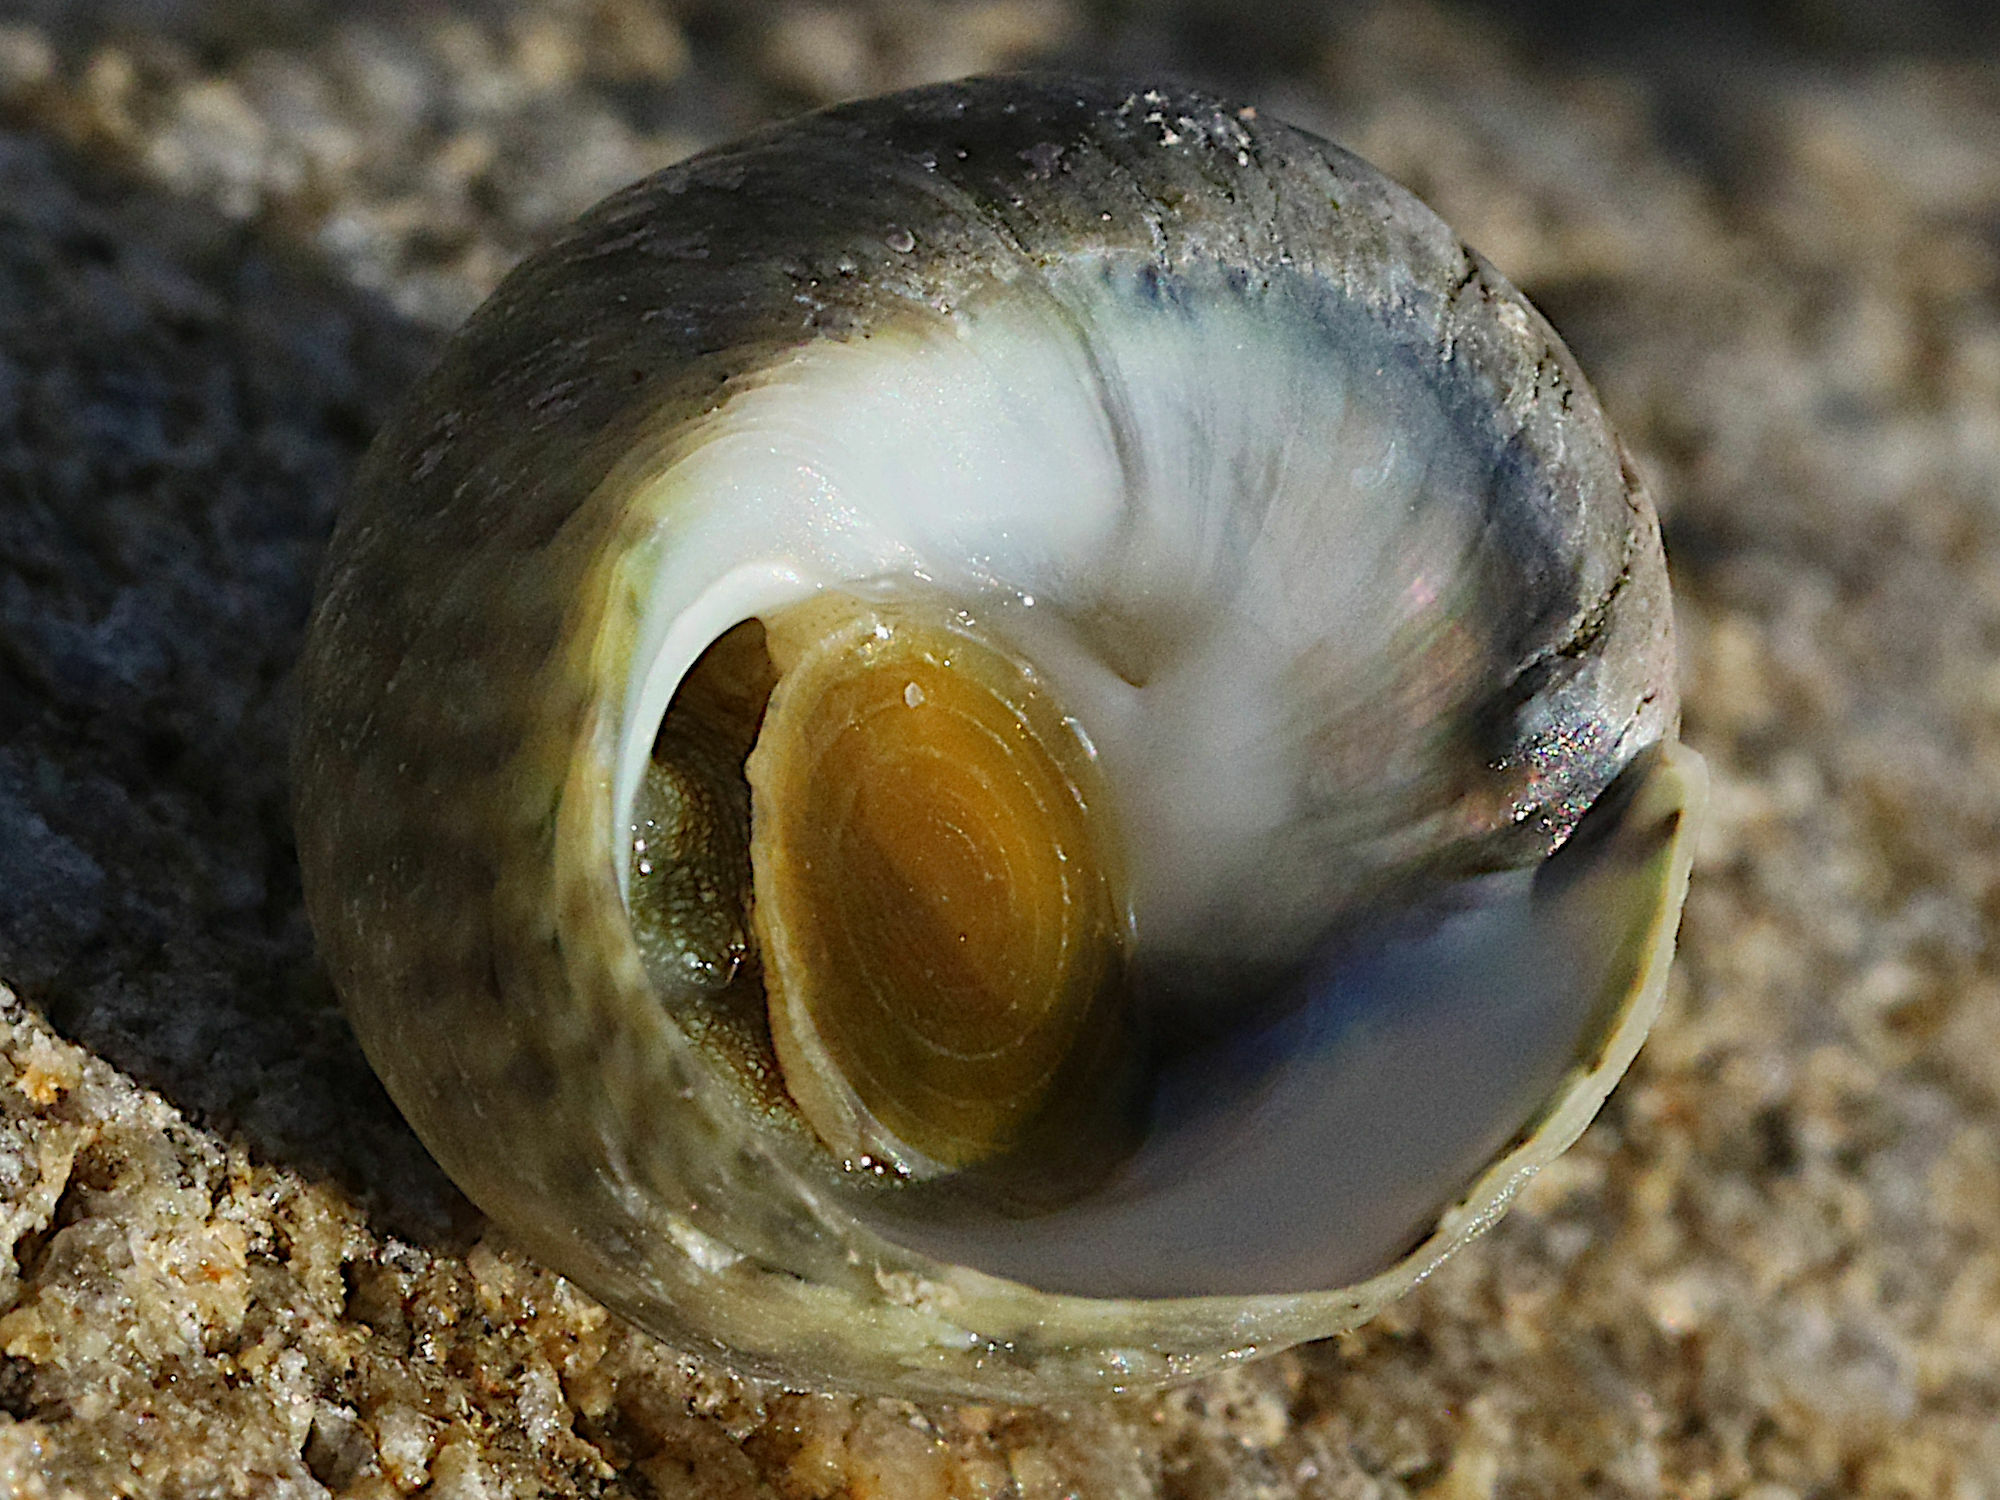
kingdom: Animalia
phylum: Mollusca
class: Gastropoda
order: Trochida
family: Trochidae
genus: Phorcus
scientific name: Phorcus mutabilis
